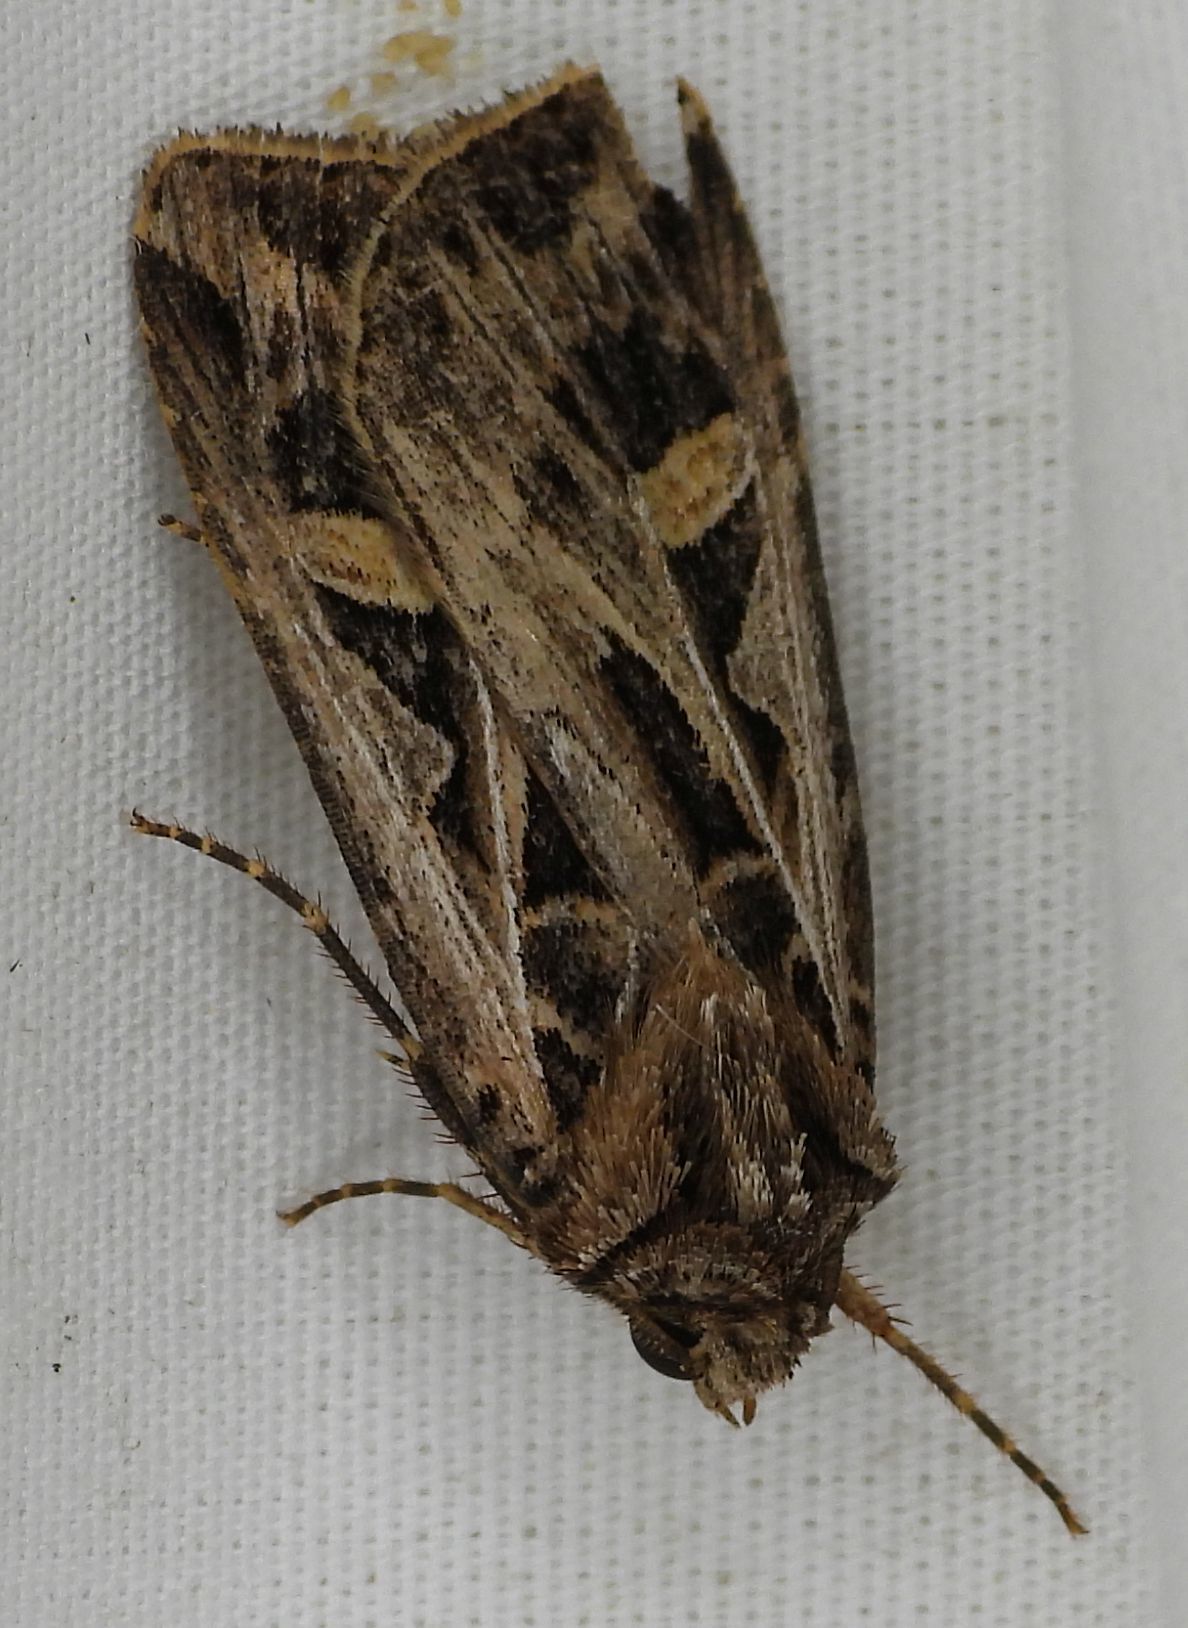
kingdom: Animalia
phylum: Arthropoda
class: Insecta
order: Lepidoptera
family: Noctuidae
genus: Feltia
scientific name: Feltia jaculifera
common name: Dingy cutworm moth
